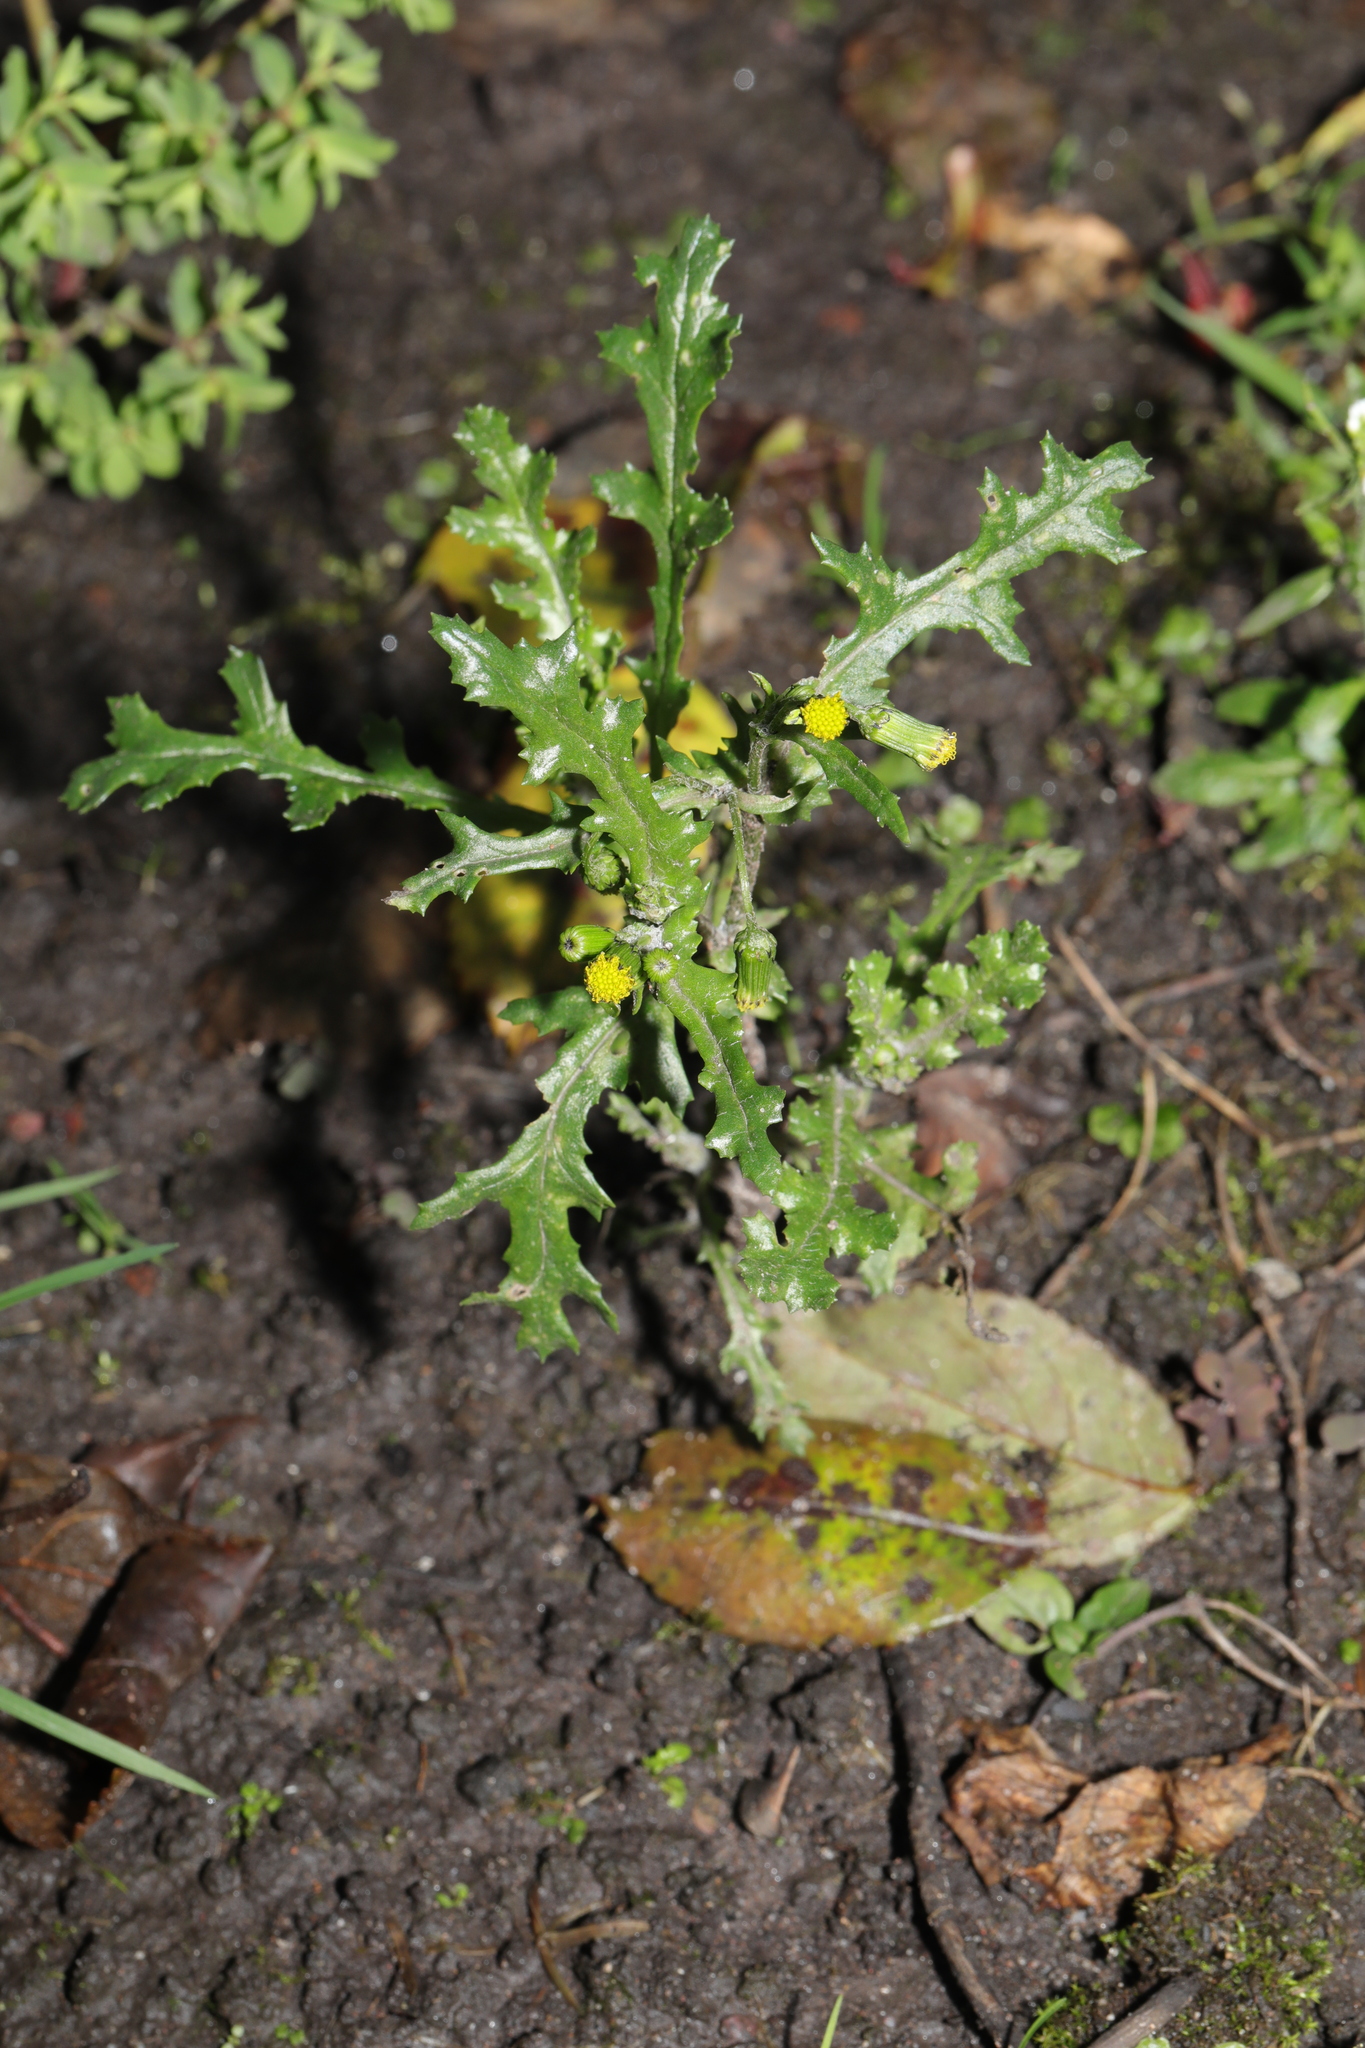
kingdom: Plantae
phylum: Tracheophyta
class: Magnoliopsida
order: Asterales
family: Asteraceae
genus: Senecio
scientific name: Senecio vulgaris
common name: Old-man-in-the-spring
